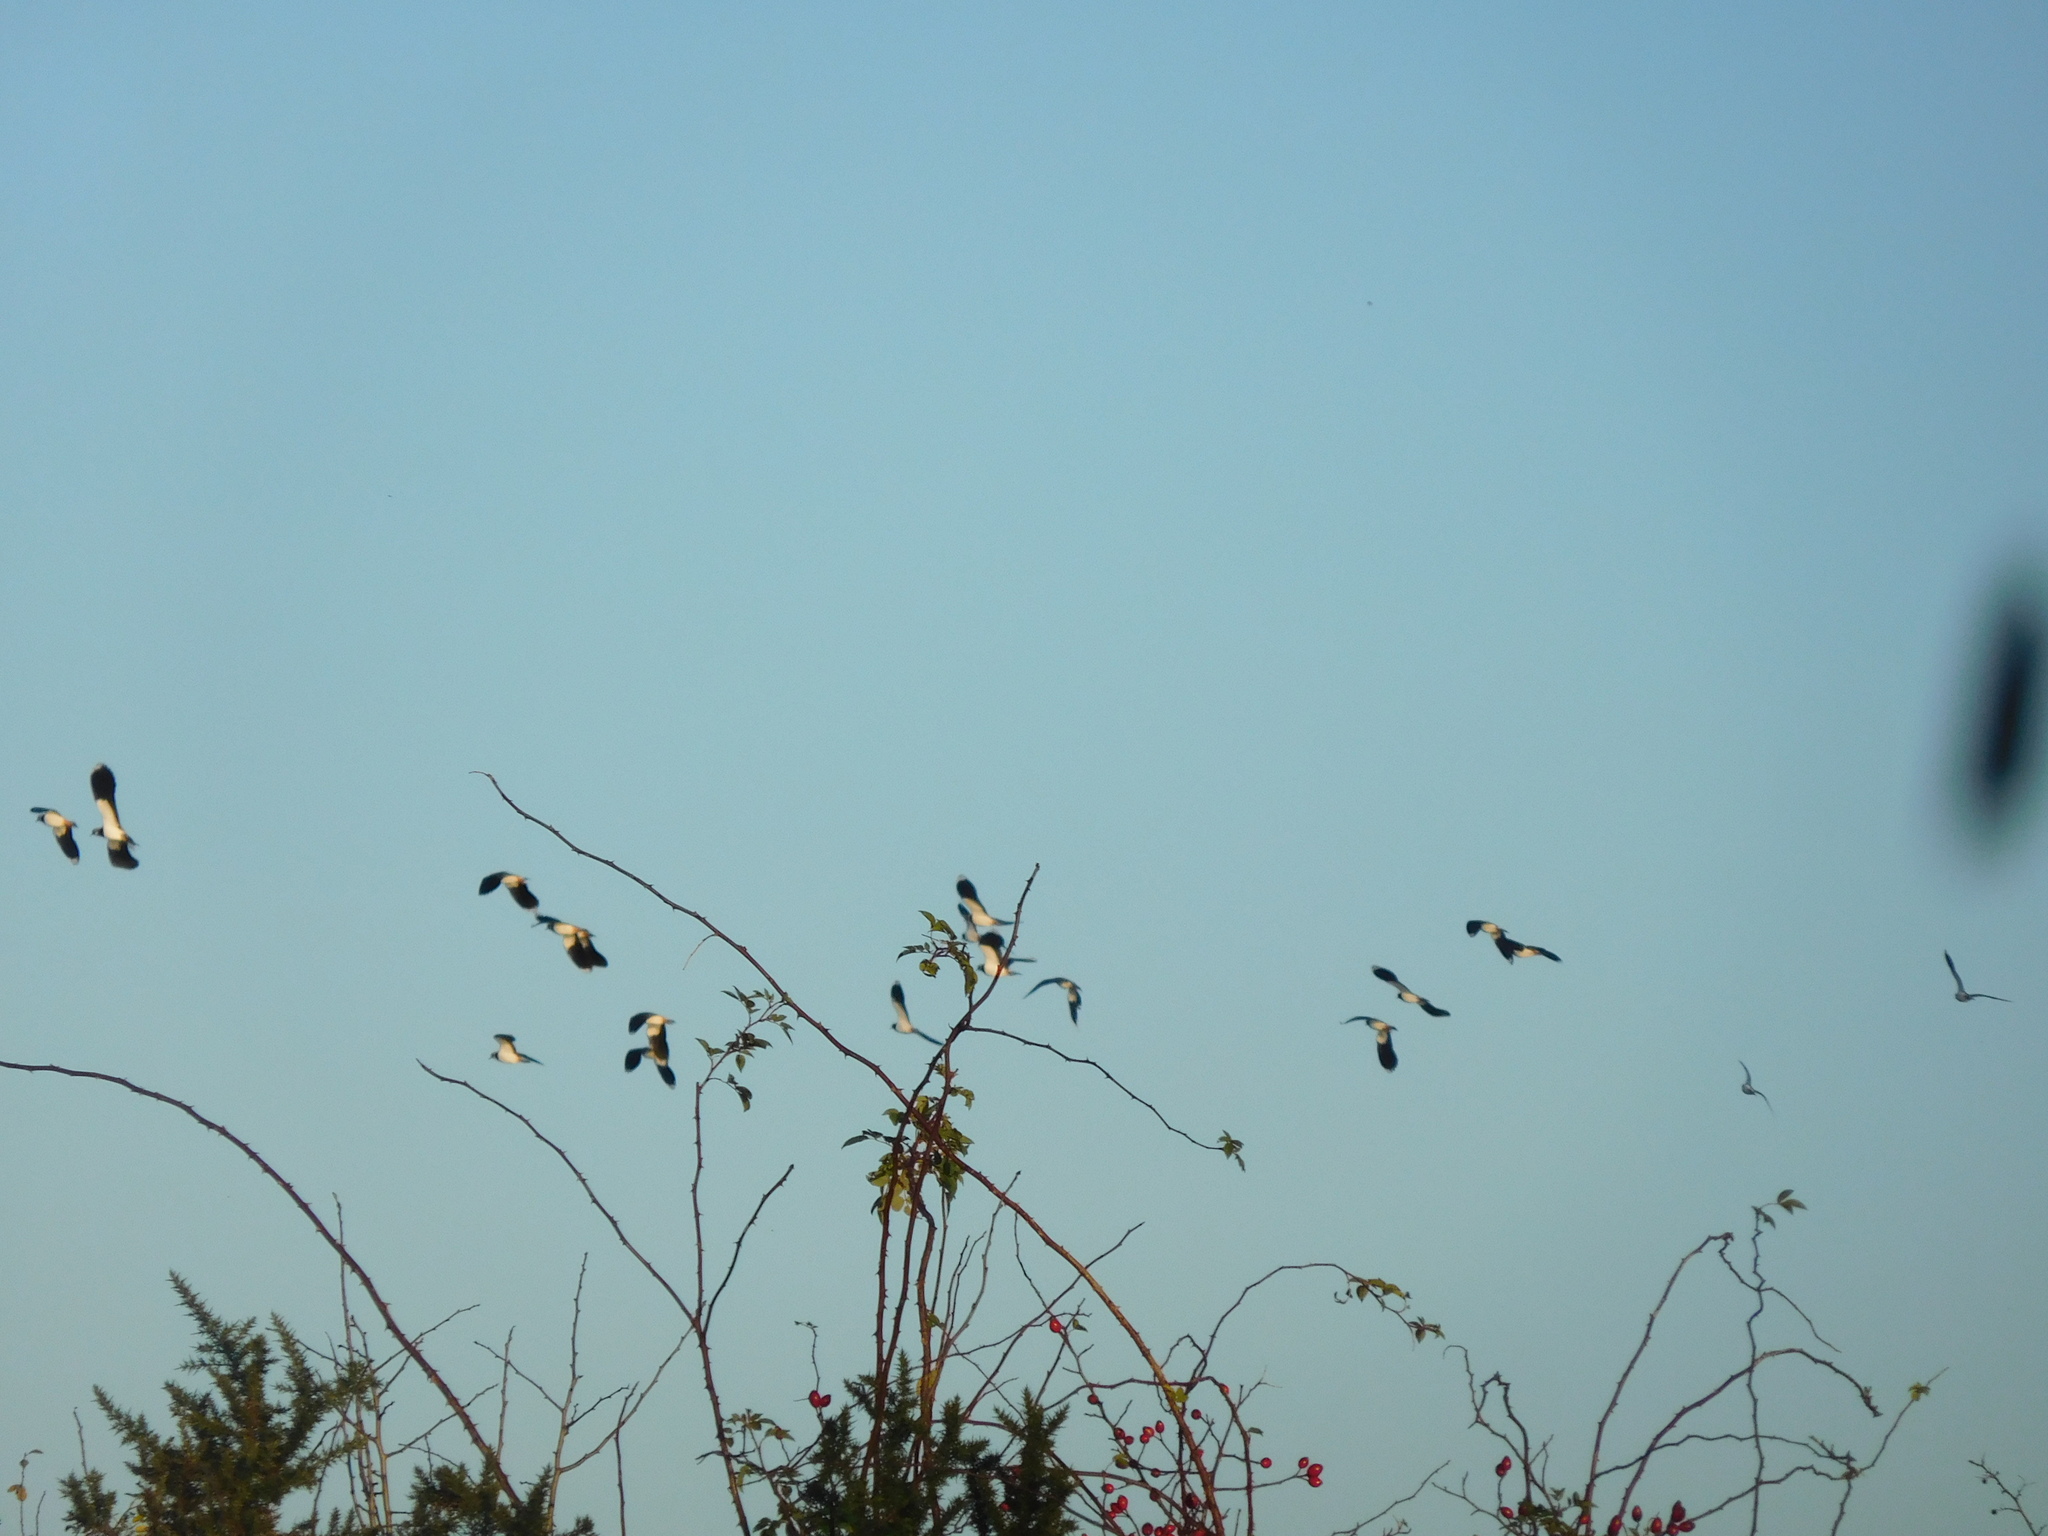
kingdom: Animalia
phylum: Chordata
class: Aves
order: Charadriiformes
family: Charadriidae
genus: Vanellus
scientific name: Vanellus vanellus
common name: Northern lapwing
